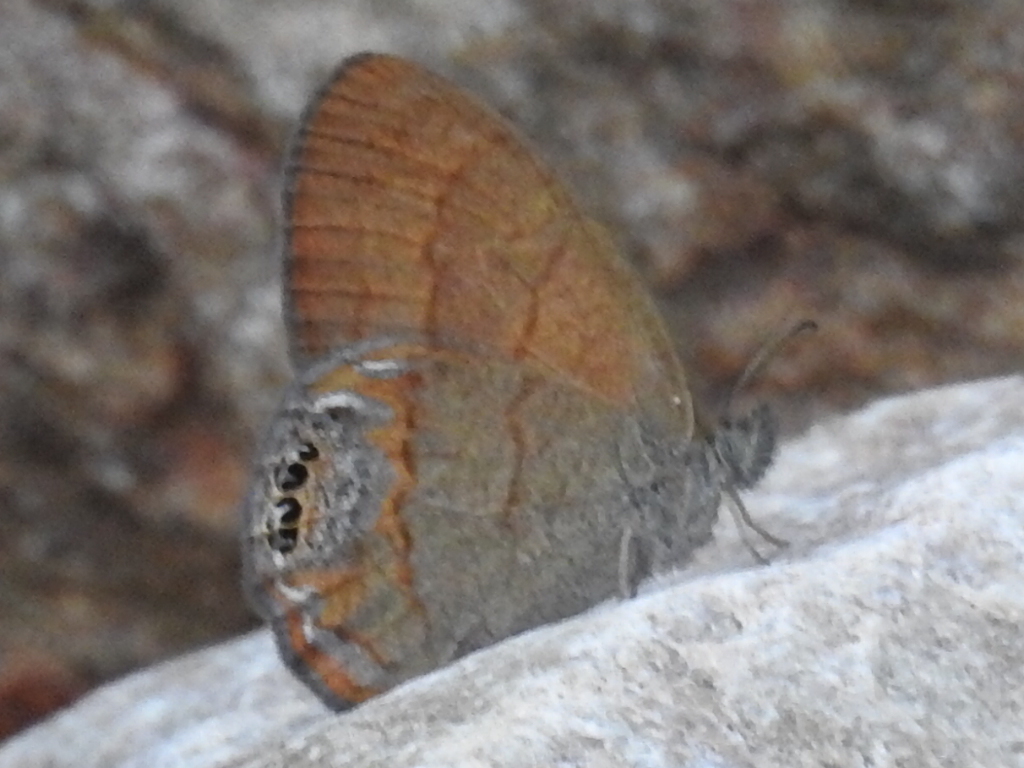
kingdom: Animalia
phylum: Arthropoda
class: Insecta
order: Lepidoptera
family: Nymphalidae
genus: Euptychia
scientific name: Euptychia pyracmon
